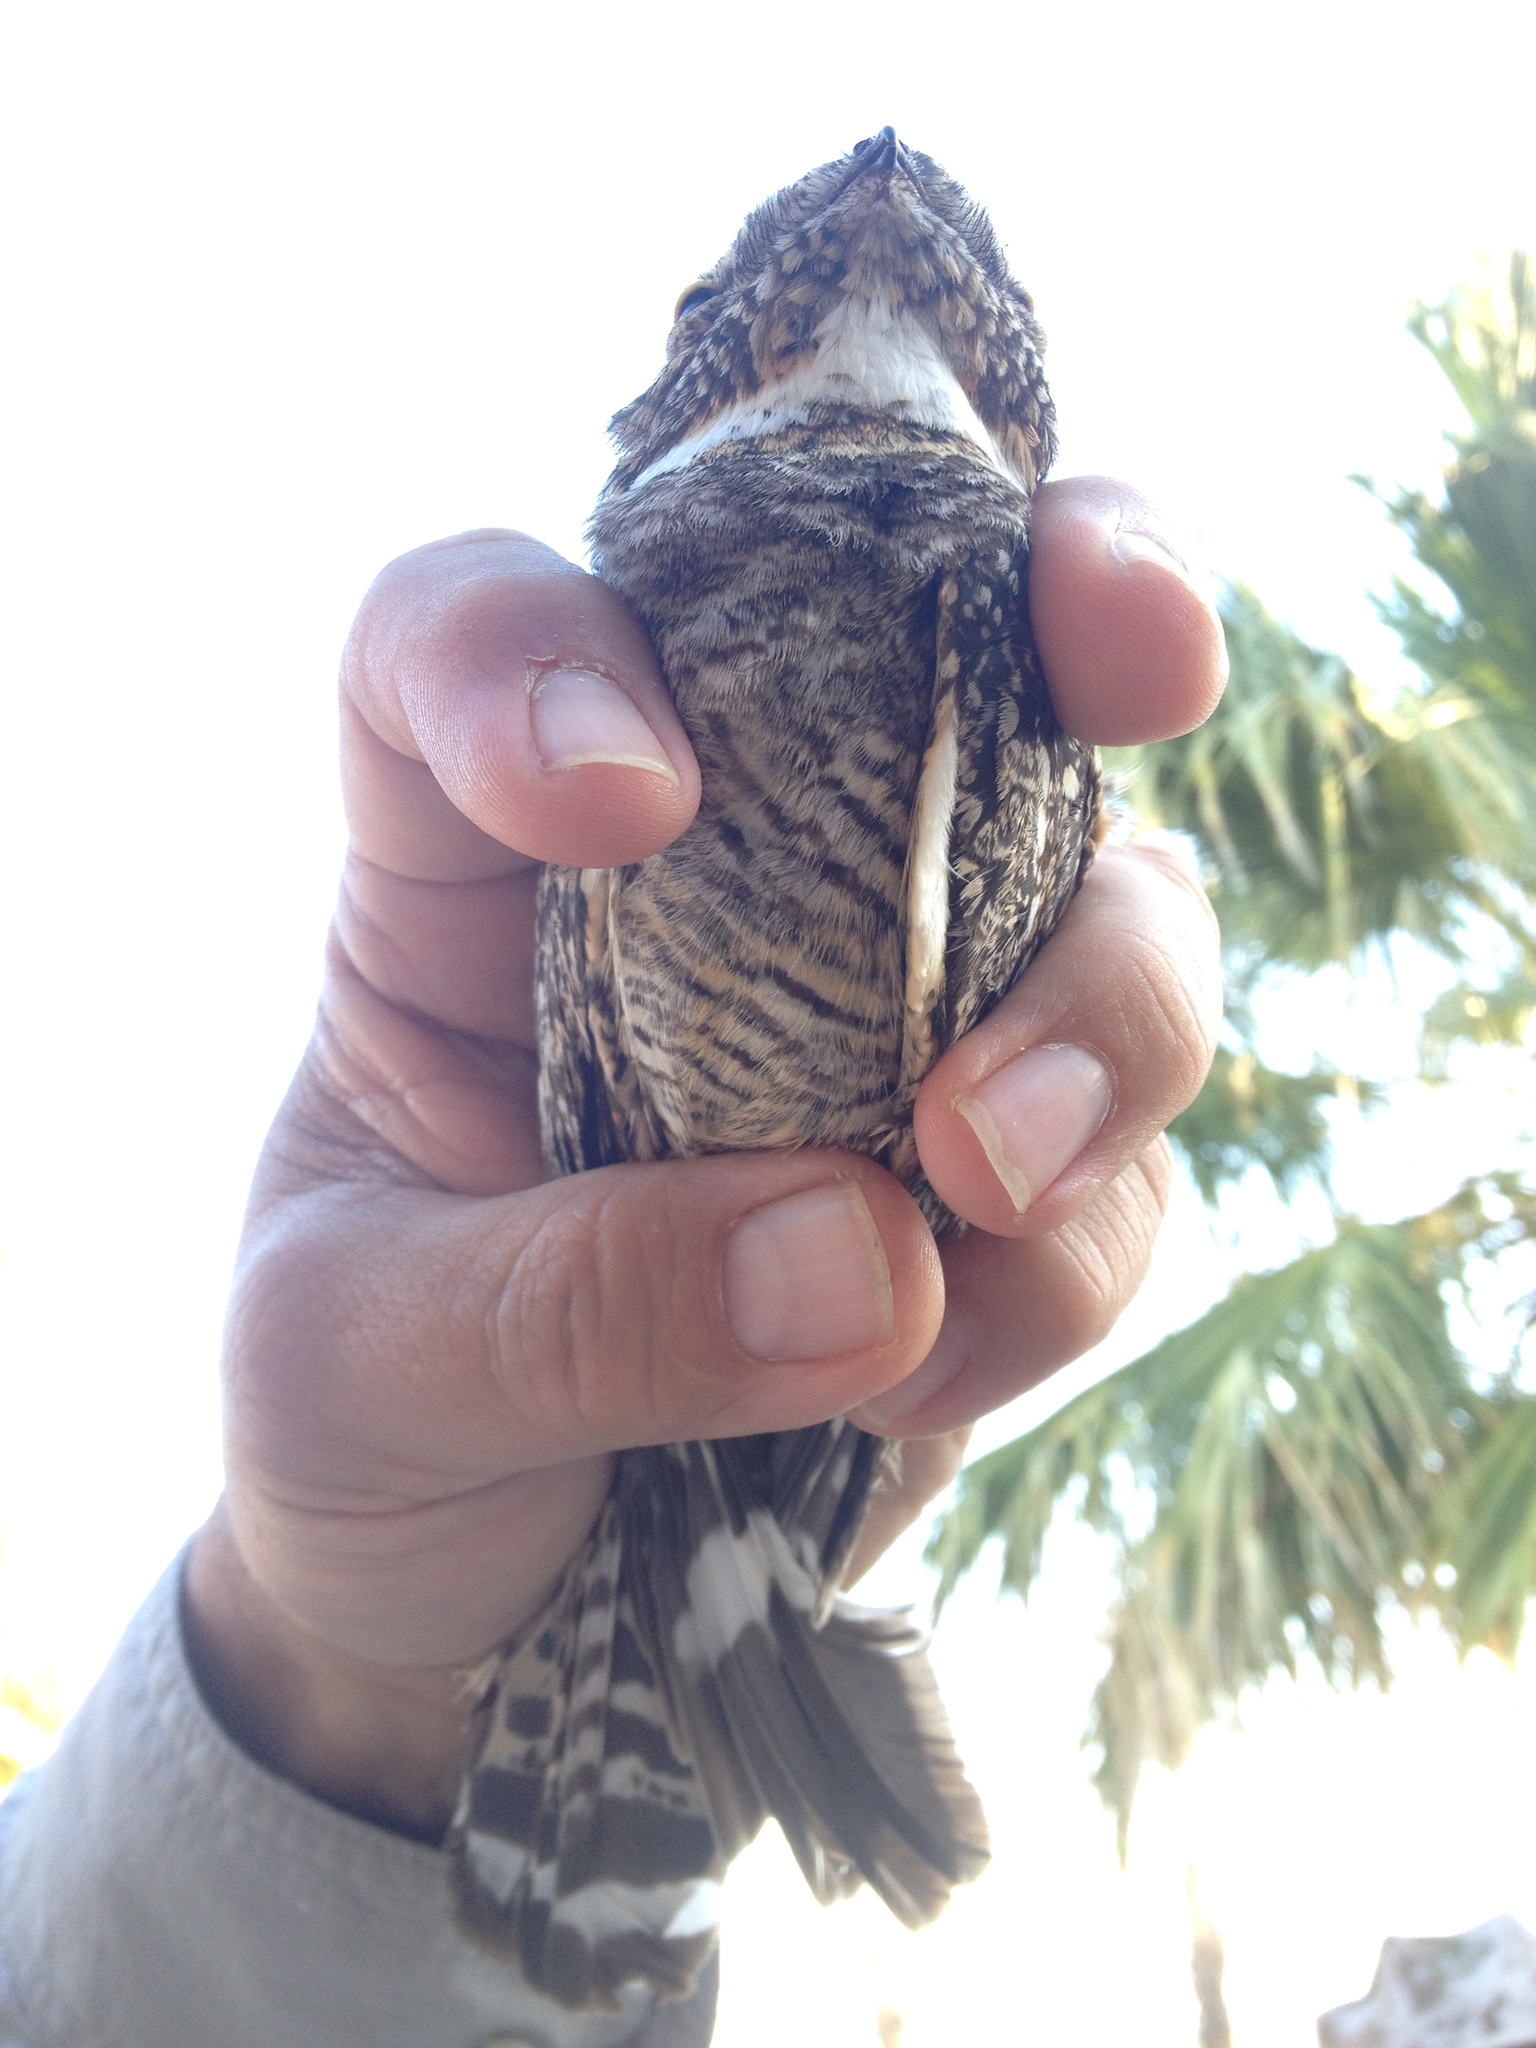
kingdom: Animalia
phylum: Chordata
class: Aves
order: Caprimulgiformes
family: Caprimulgidae
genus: Chordeiles
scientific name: Chordeiles acutipennis
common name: Lesser nighthawk
